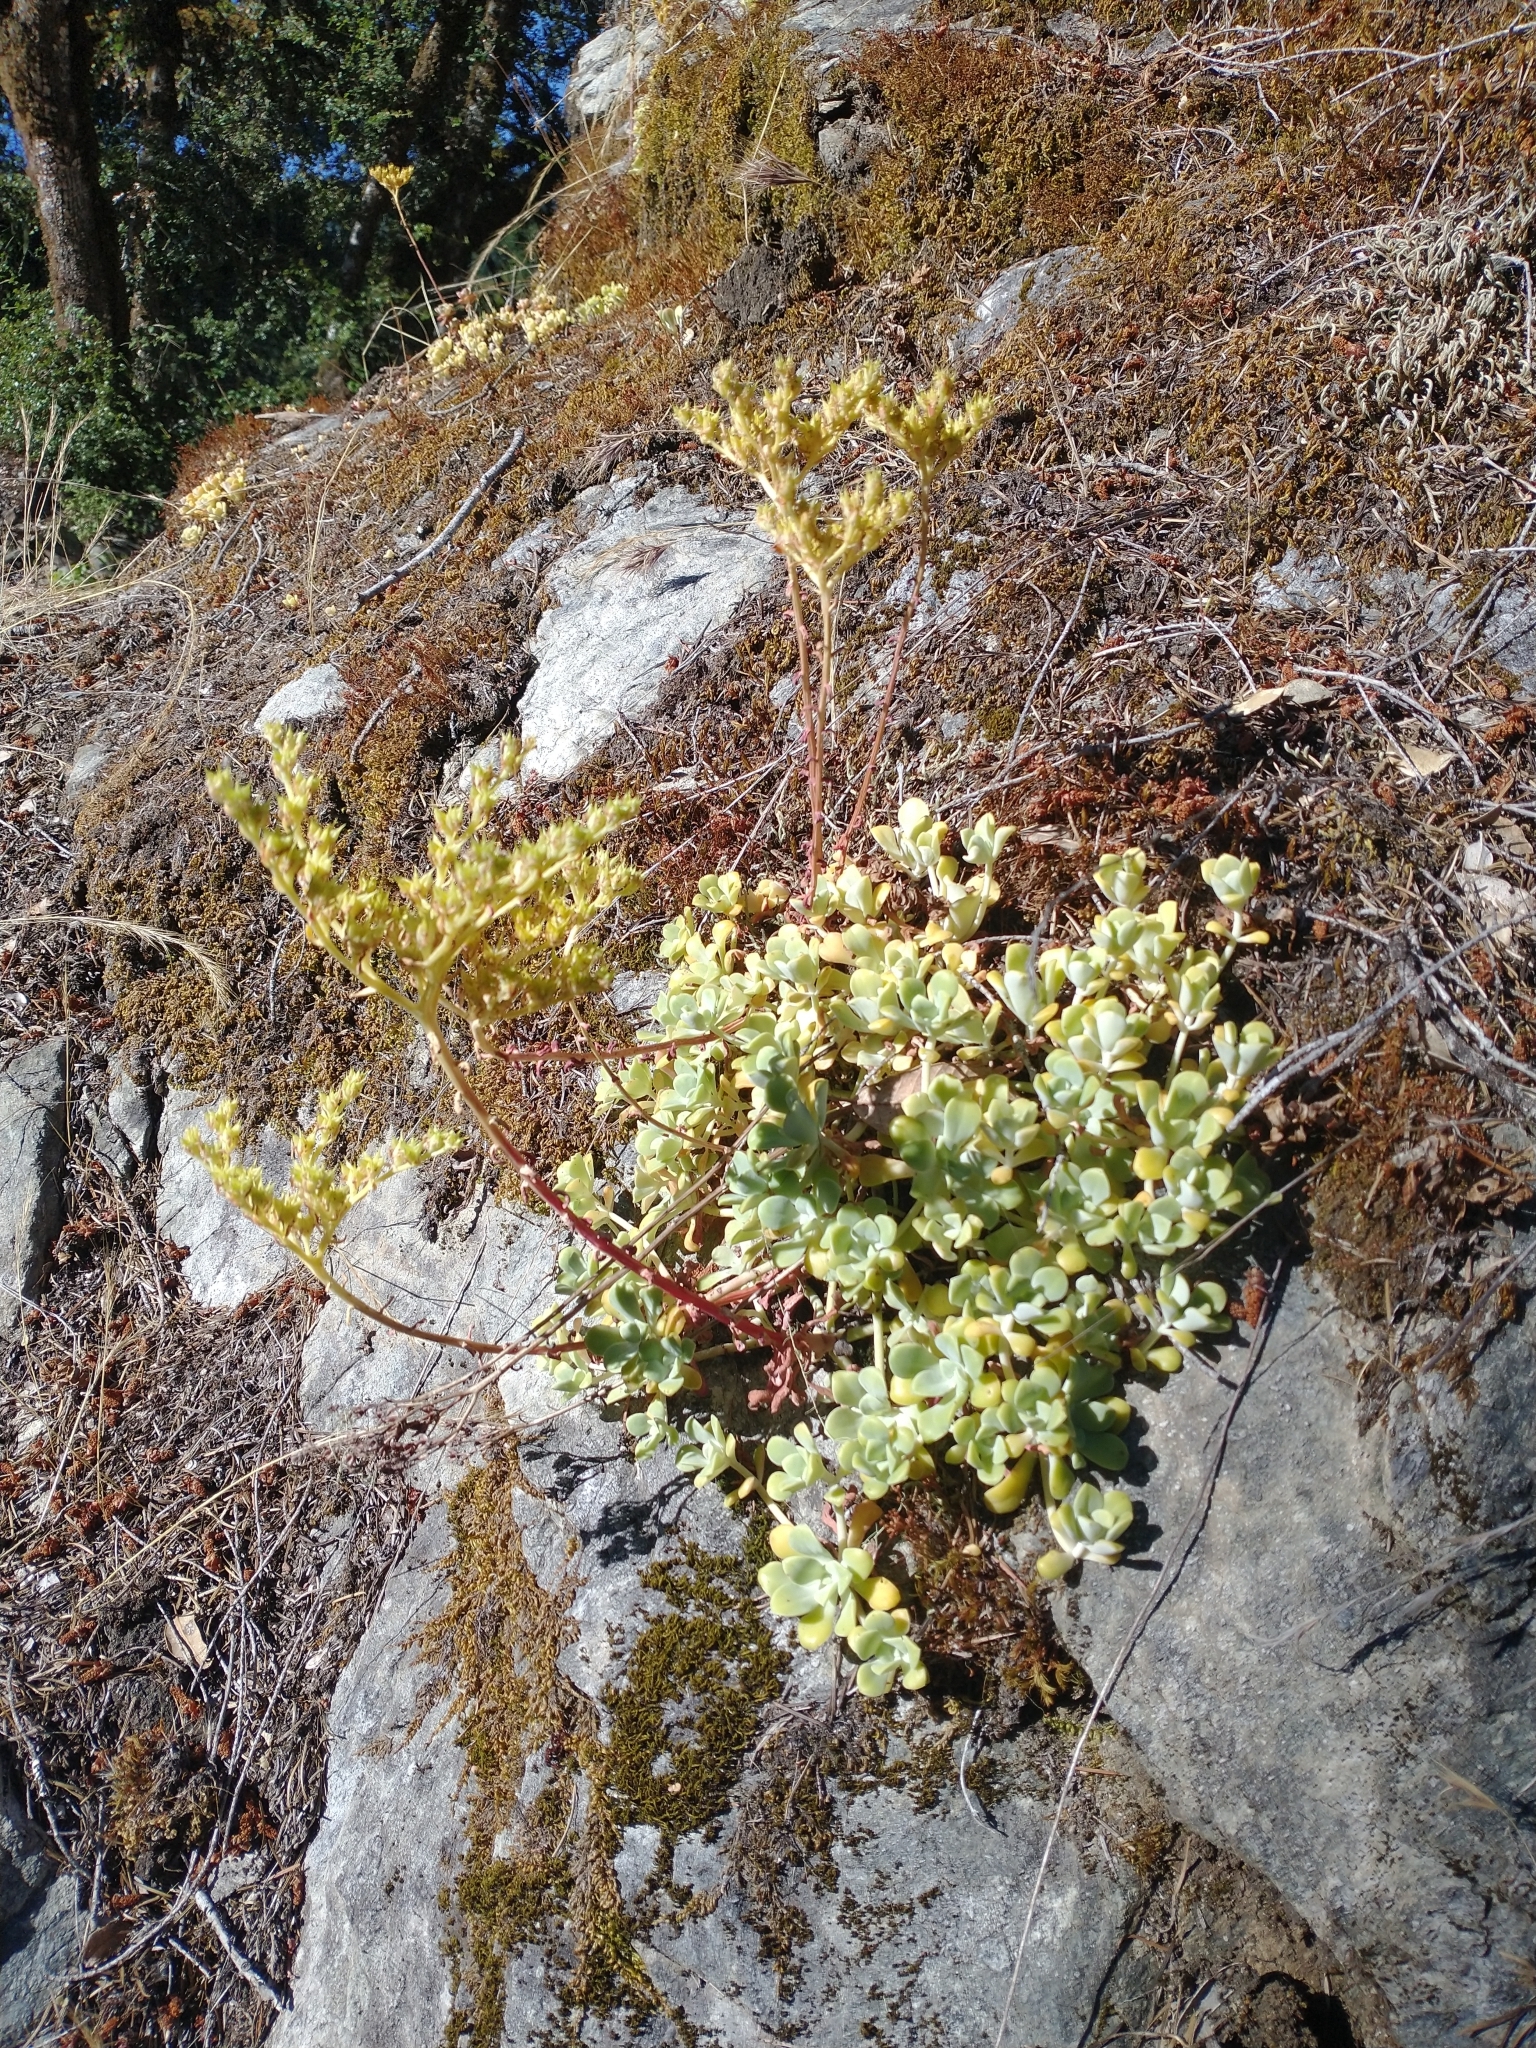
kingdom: Plantae
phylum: Tracheophyta
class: Magnoliopsida
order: Saxifragales
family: Crassulaceae
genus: Sedum
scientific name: Sedum spathulifolium
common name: Colorado stonecrop
